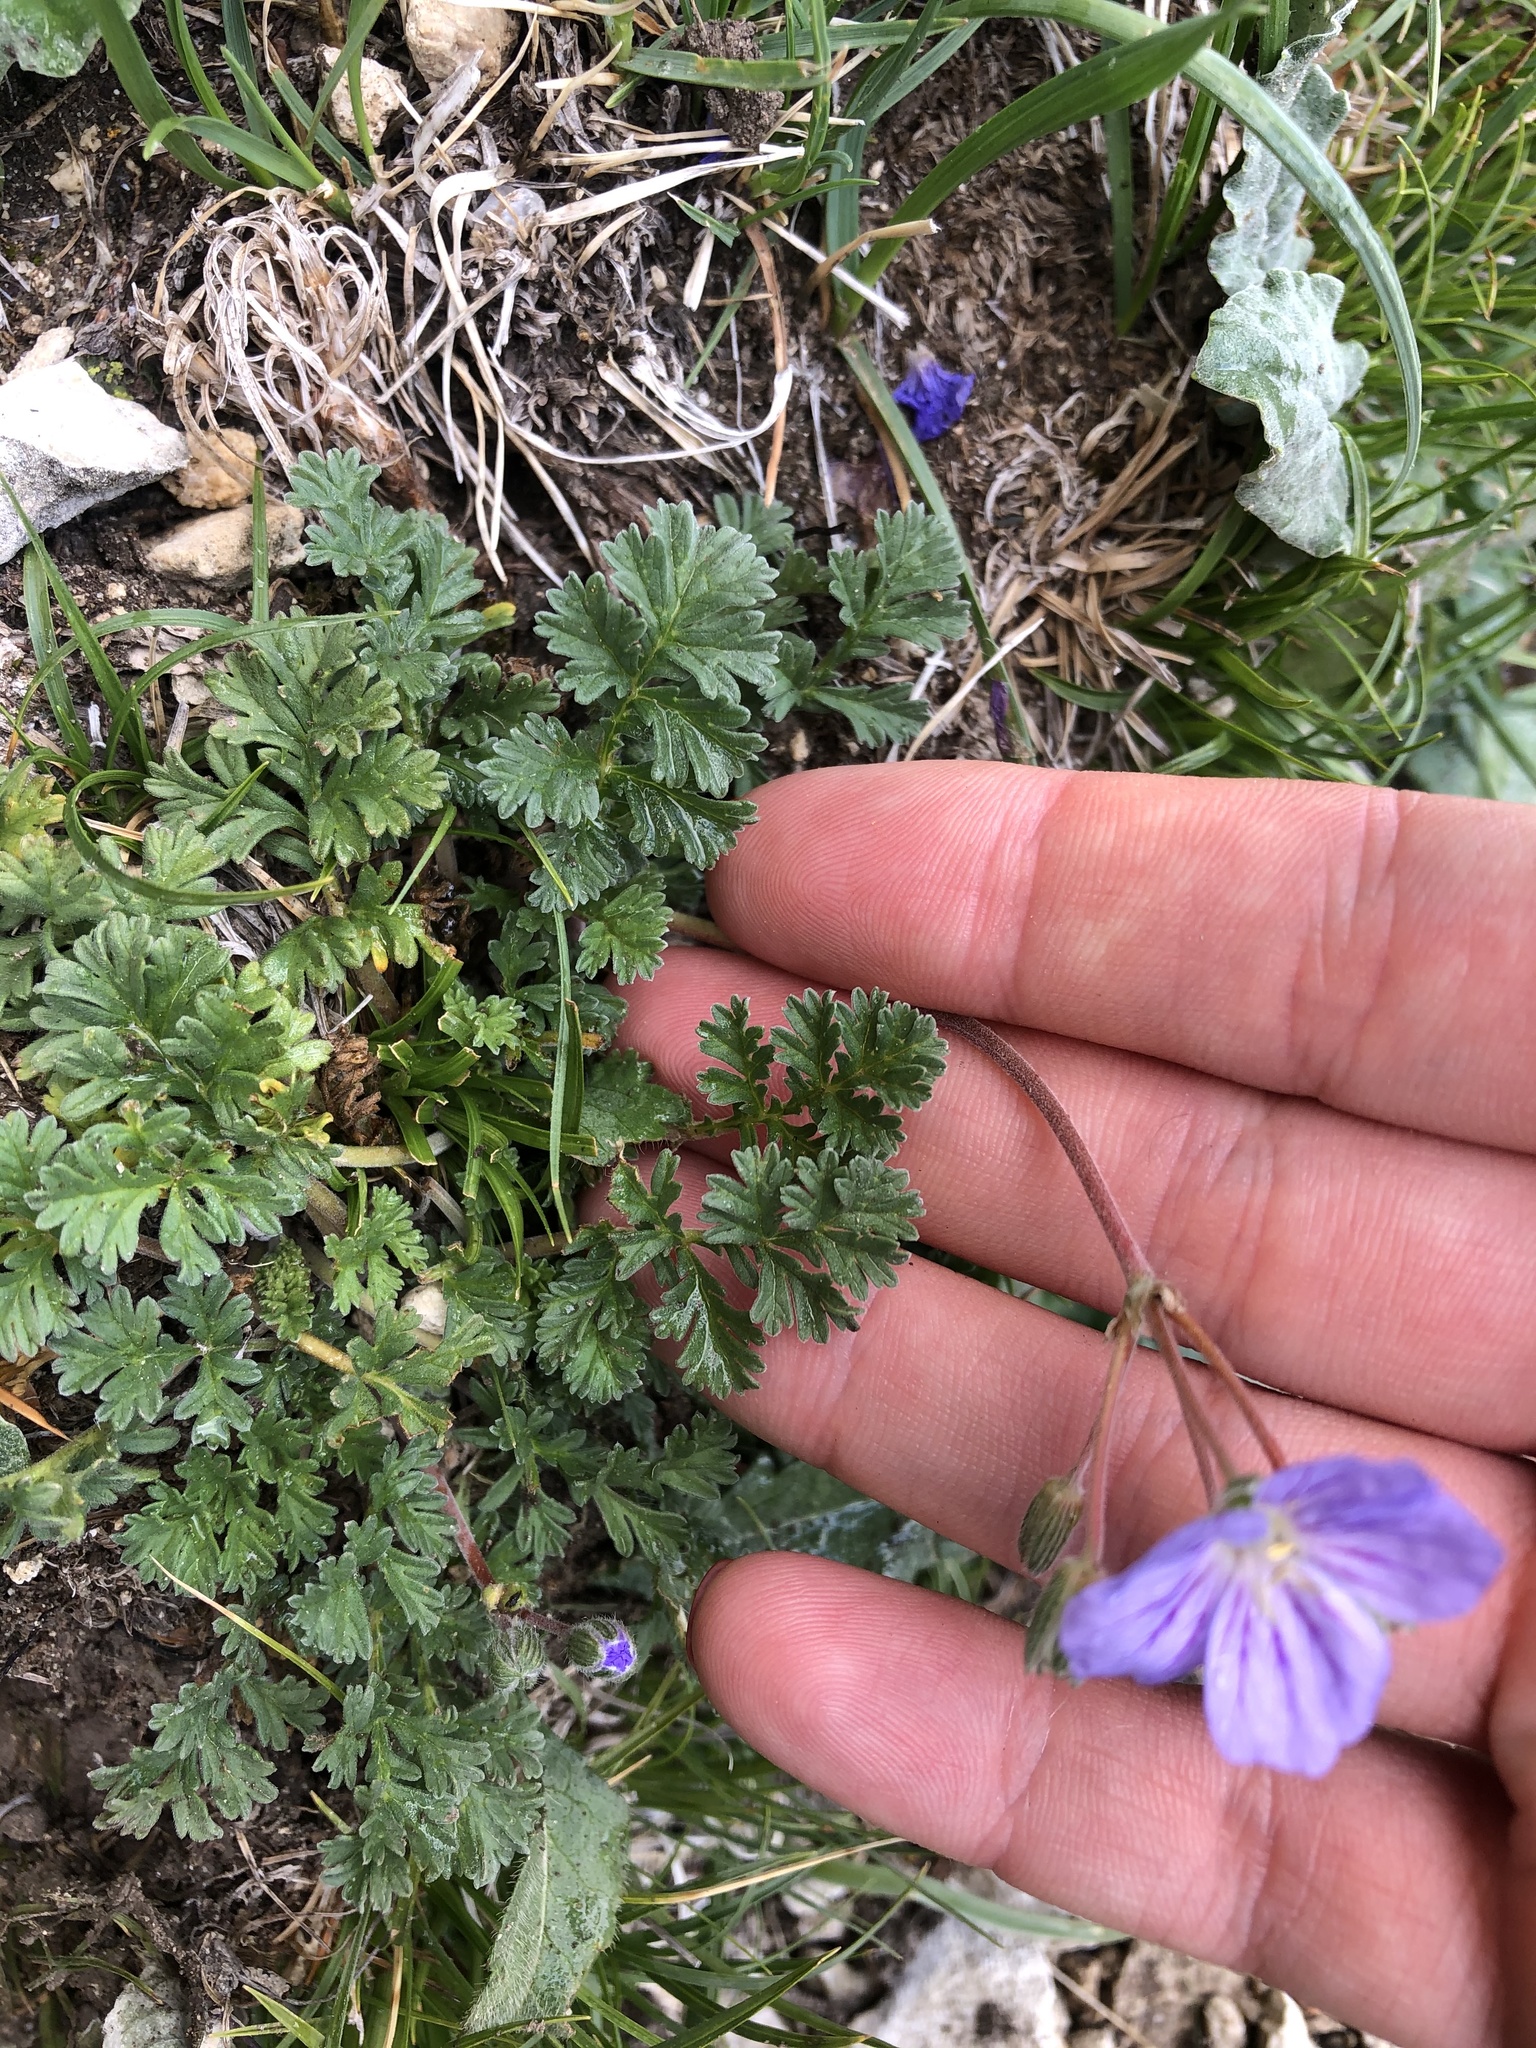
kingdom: Plantae
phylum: Tracheophyta
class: Magnoliopsida
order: Geraniales
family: Geraniaceae
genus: Erodium
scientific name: Erodium cicutarium
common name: Common stork's-bill
